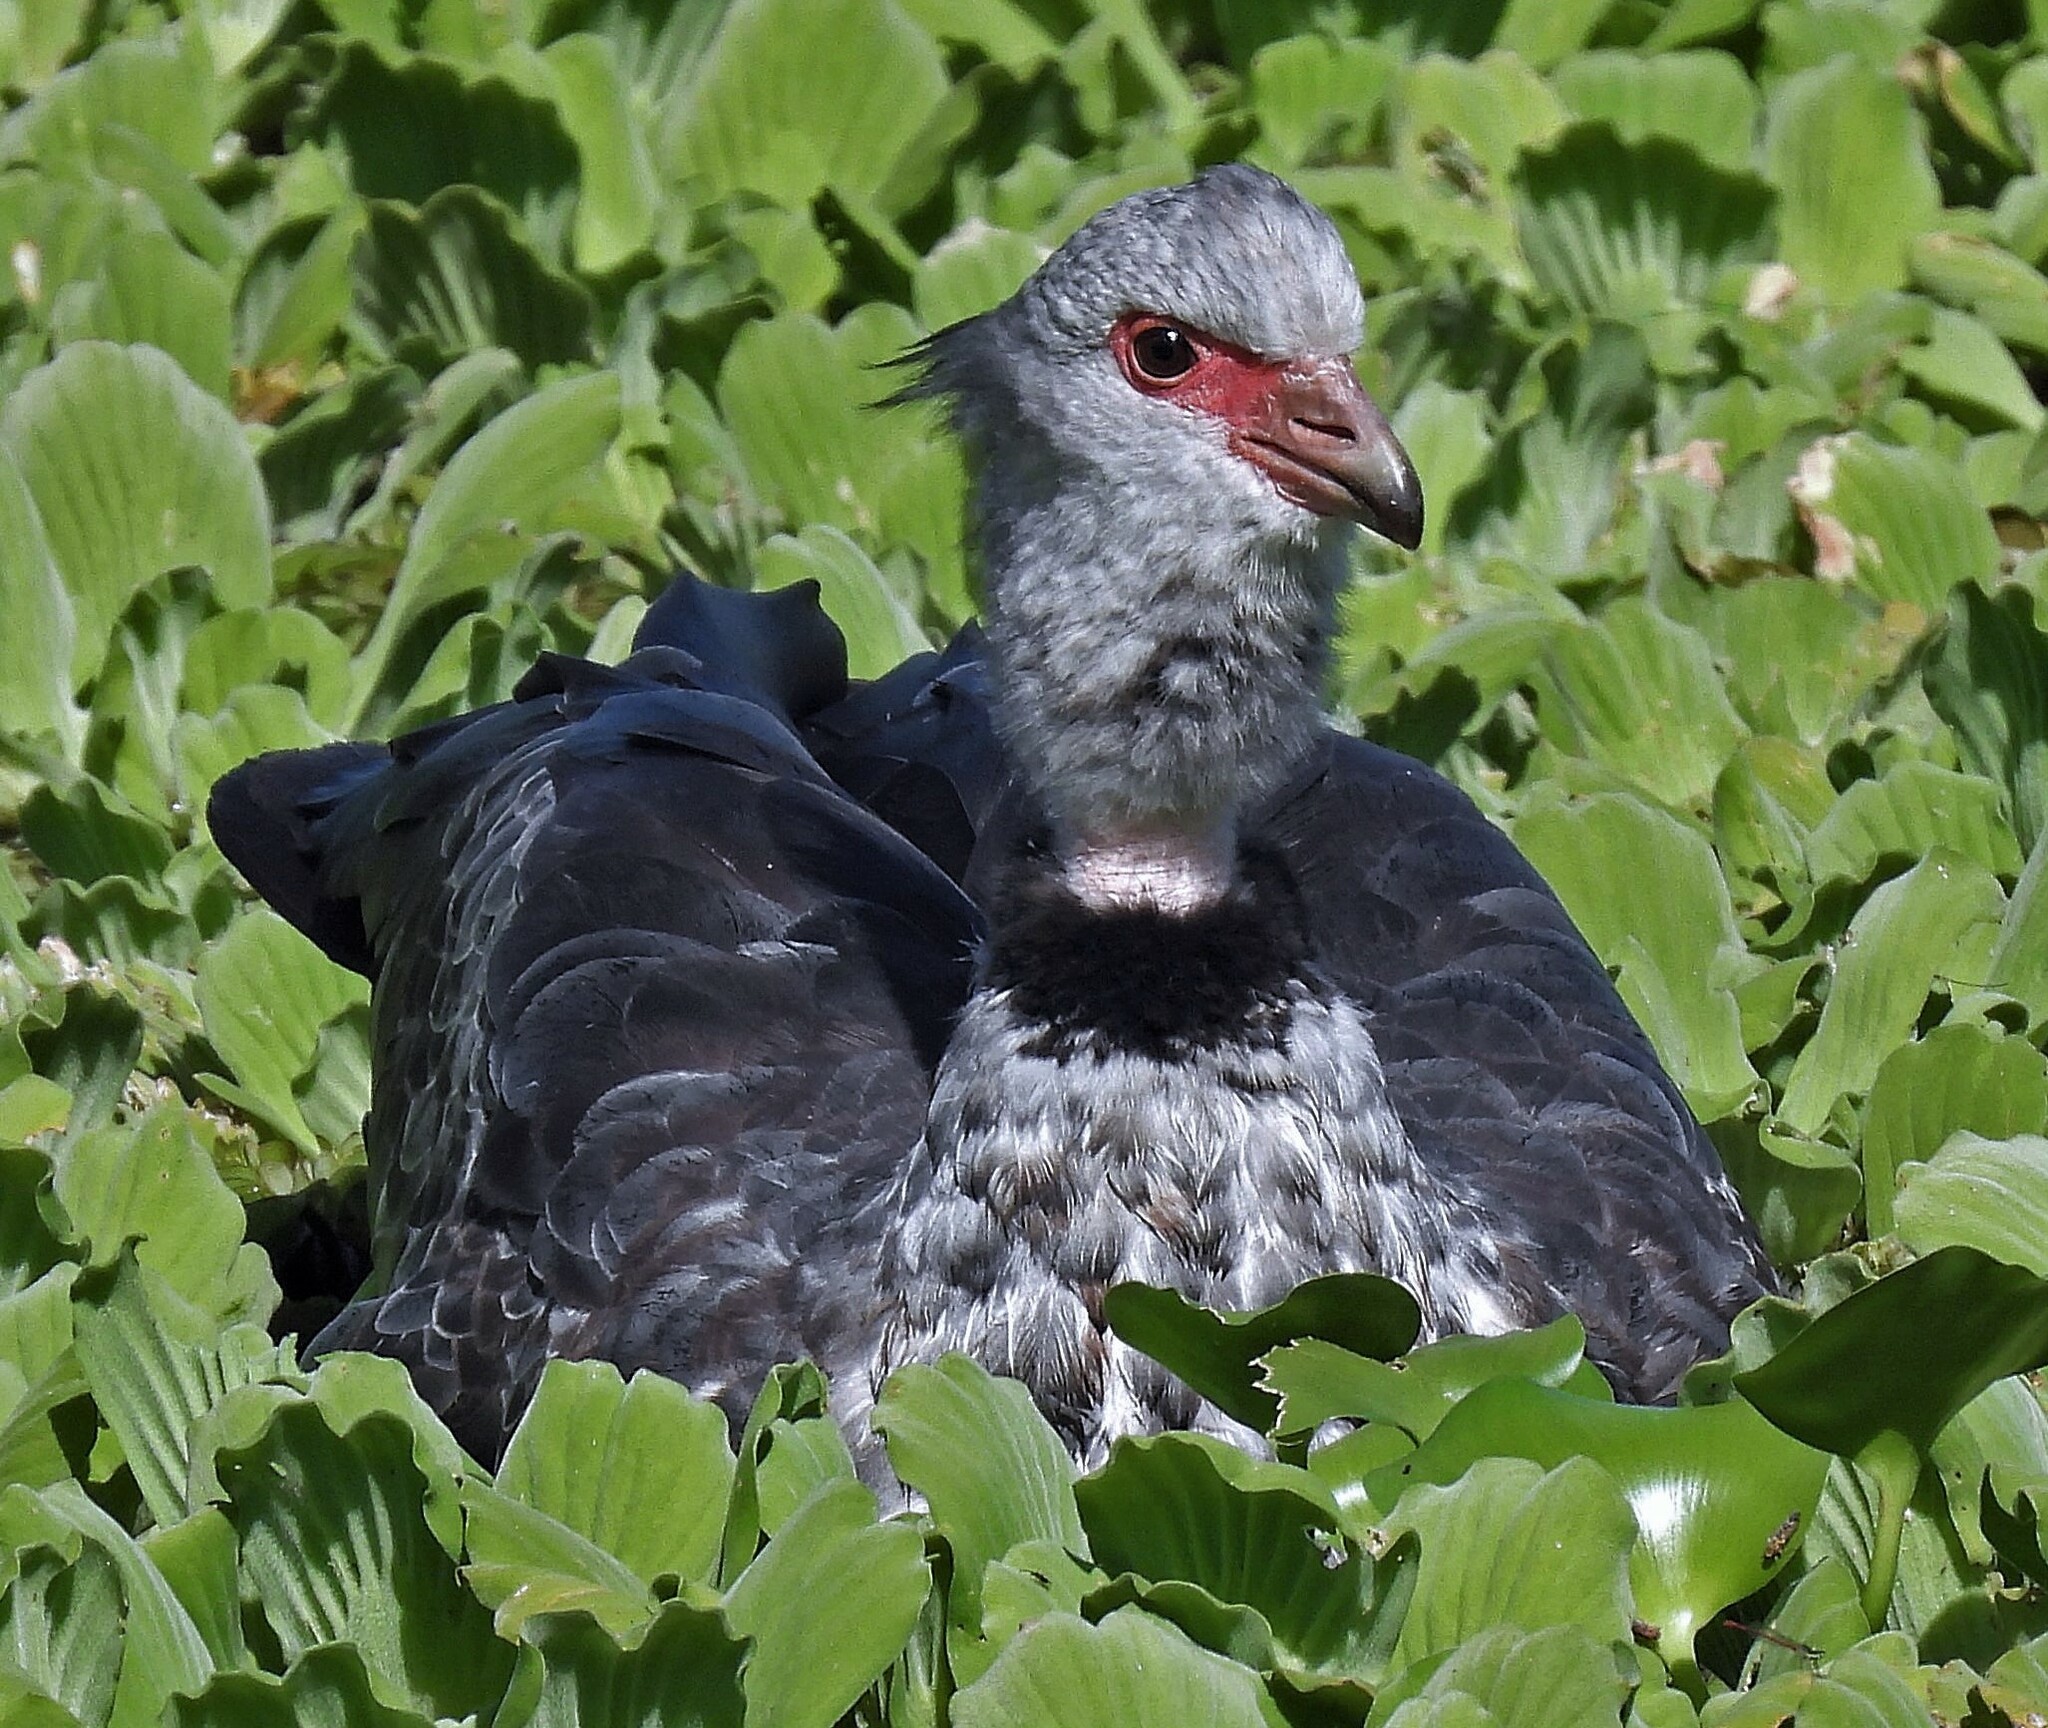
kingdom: Animalia
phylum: Chordata
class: Aves
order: Anseriformes
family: Anhimidae
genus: Chauna
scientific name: Chauna torquata
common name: Southern screamer
